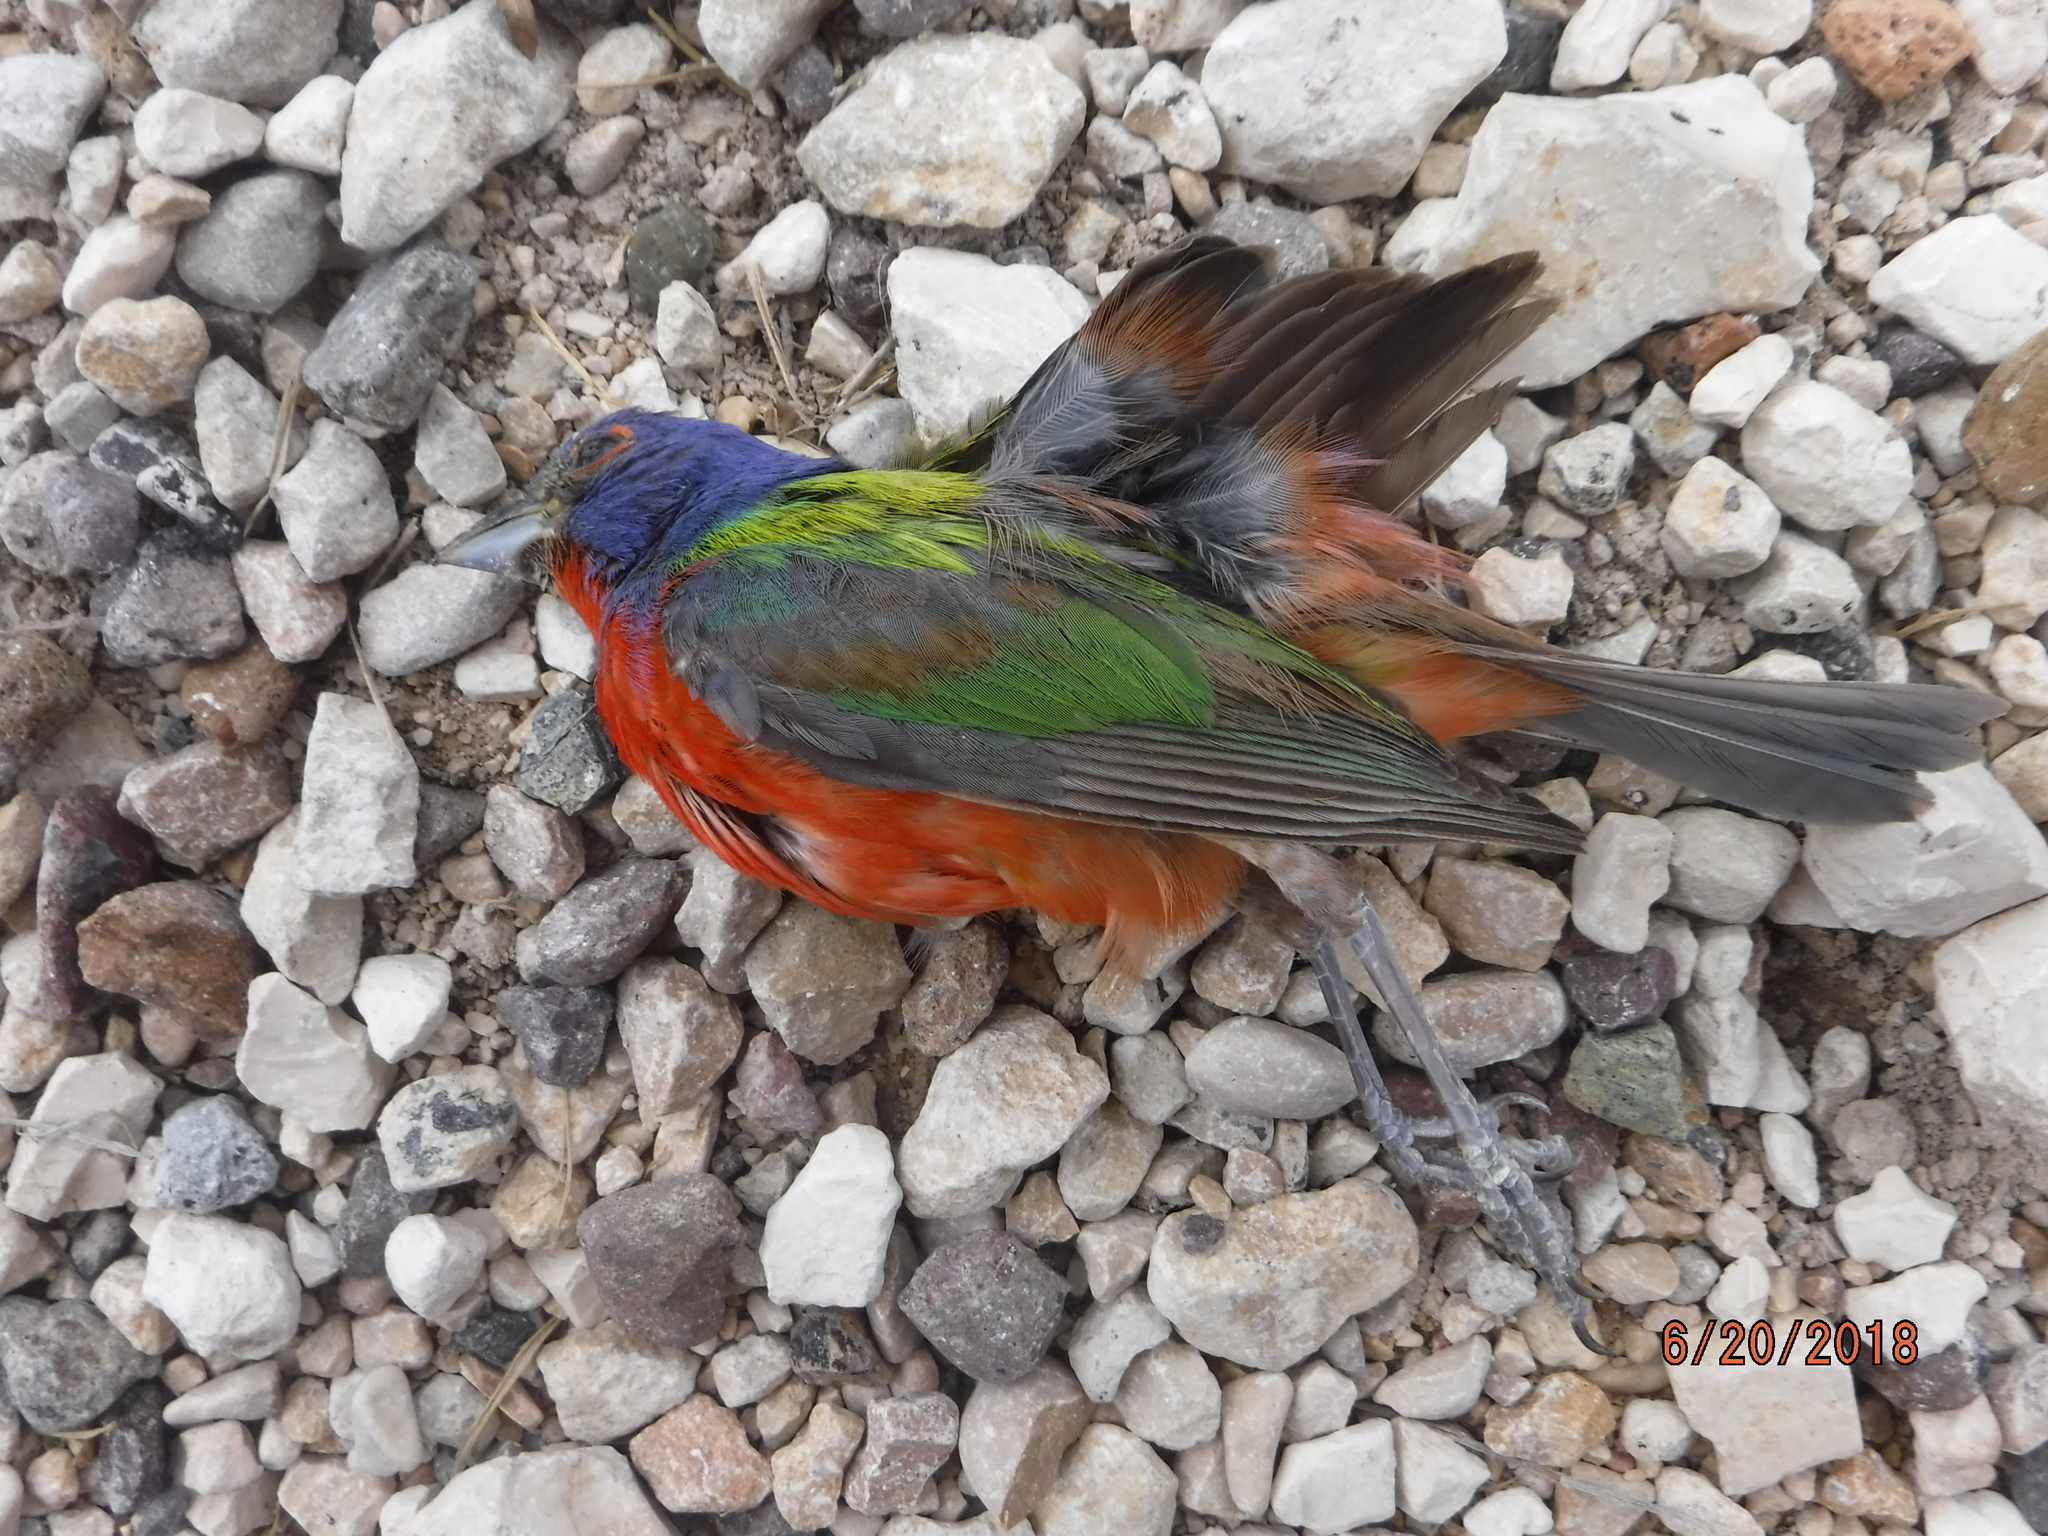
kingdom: Animalia
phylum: Chordata
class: Aves
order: Passeriformes
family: Cardinalidae
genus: Passerina
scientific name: Passerina ciris
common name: Painted bunting
